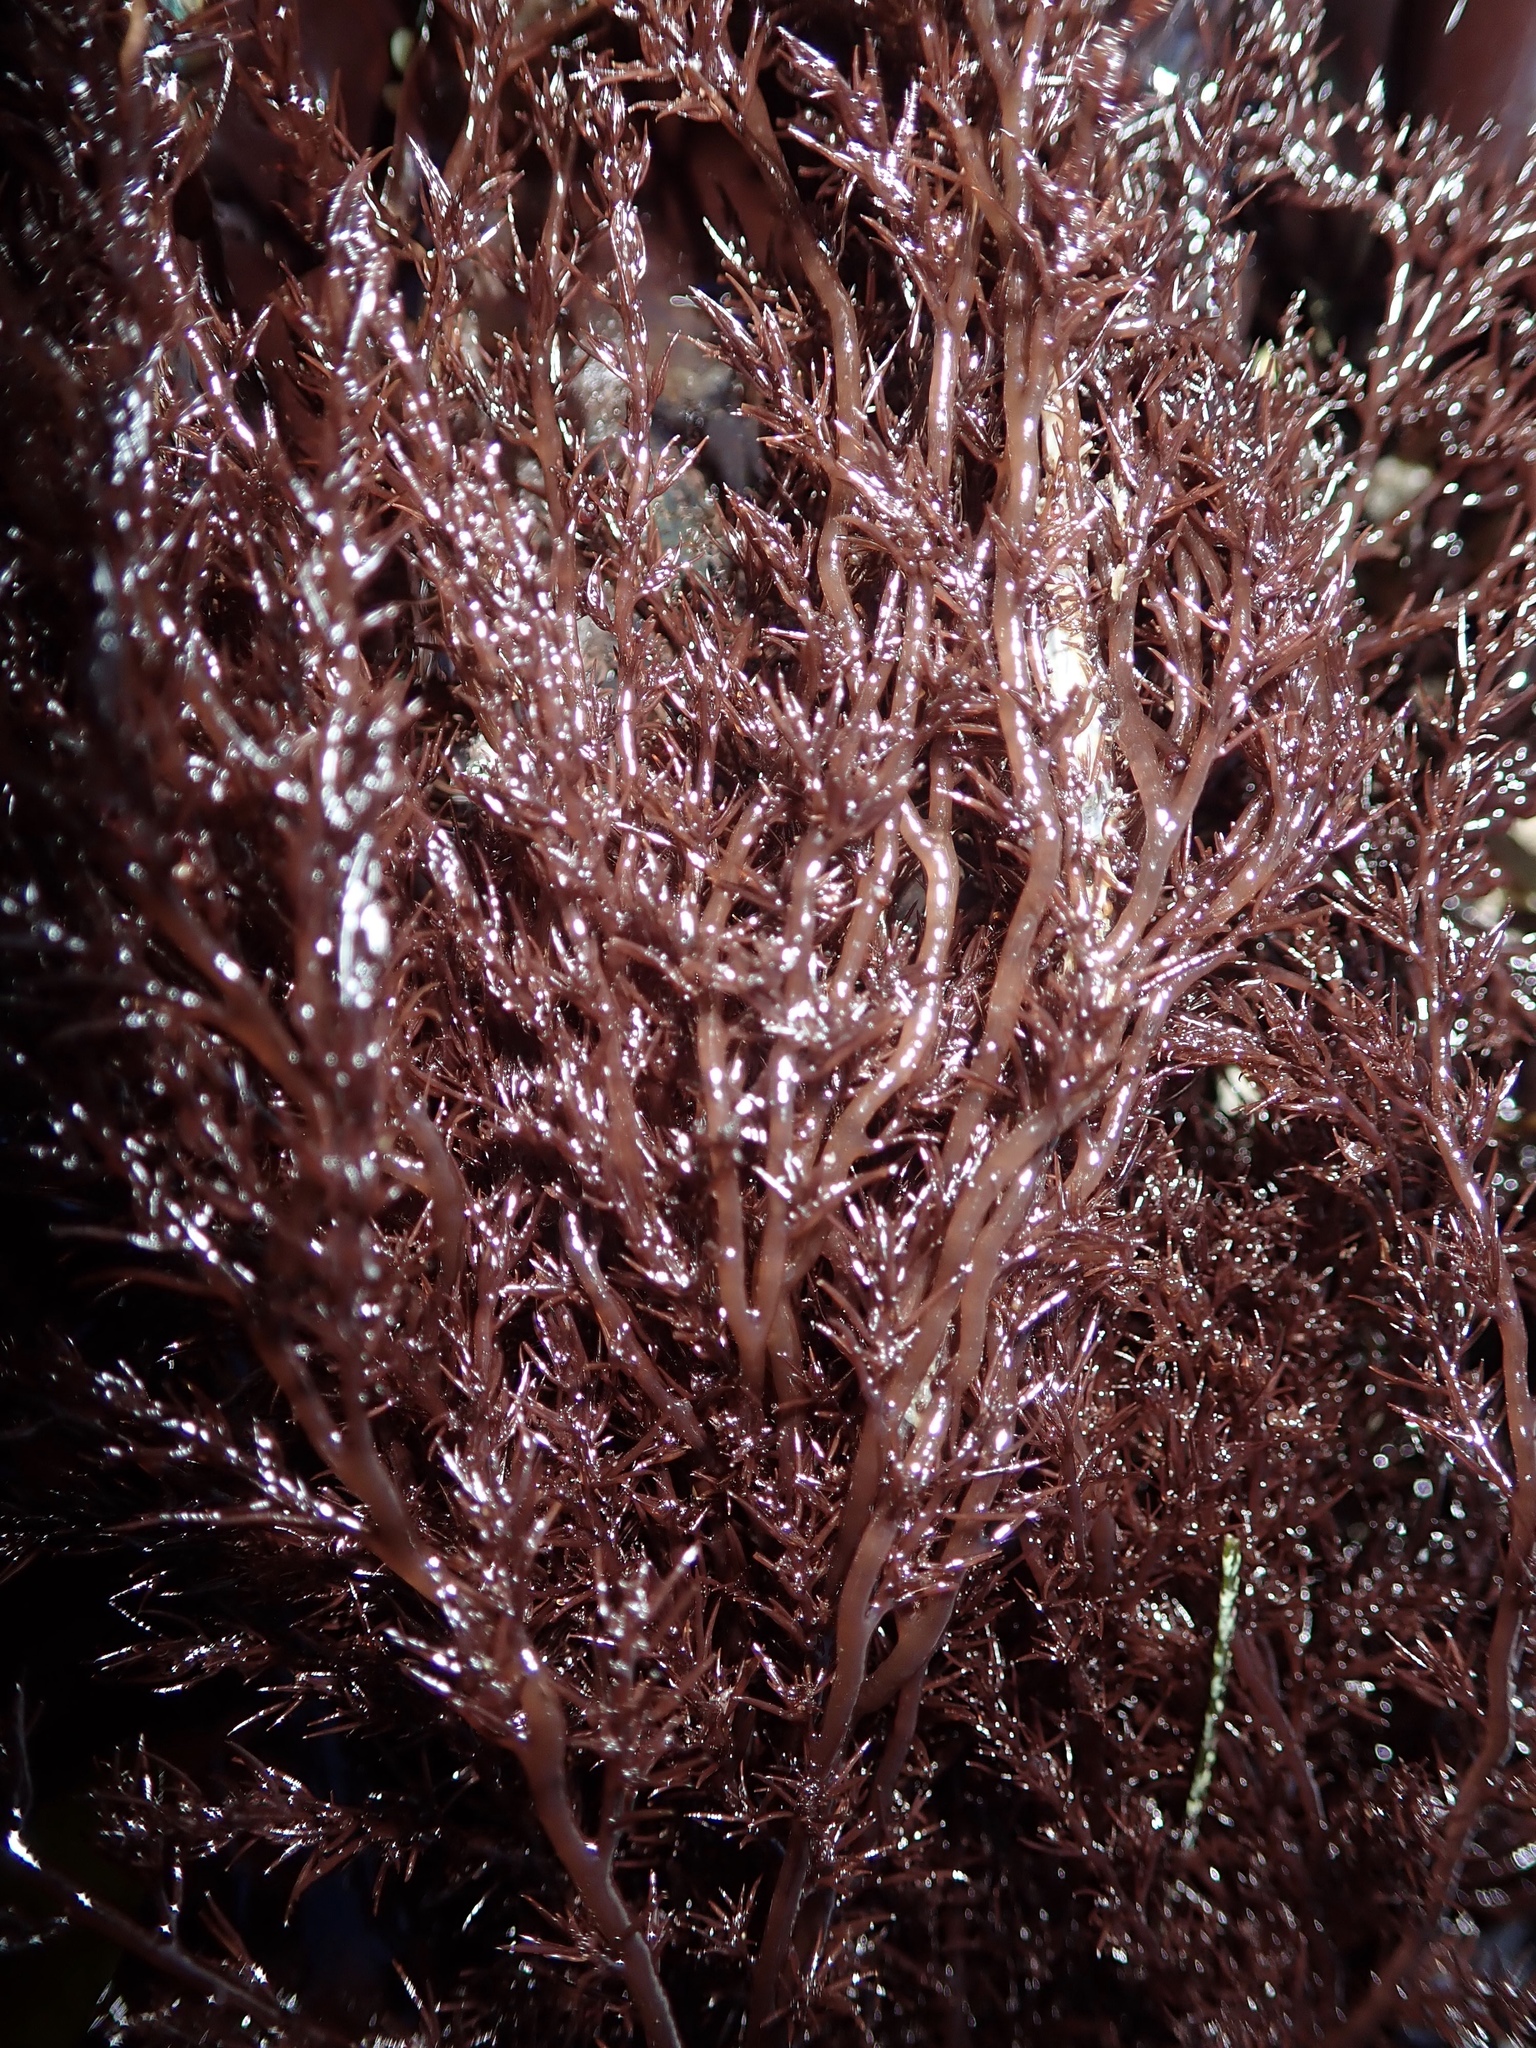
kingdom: Plantae
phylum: Rhodophyta
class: Florideophyceae
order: Ceramiales
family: Rhodomelaceae
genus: Odonthalia
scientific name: Odonthalia floccosa
